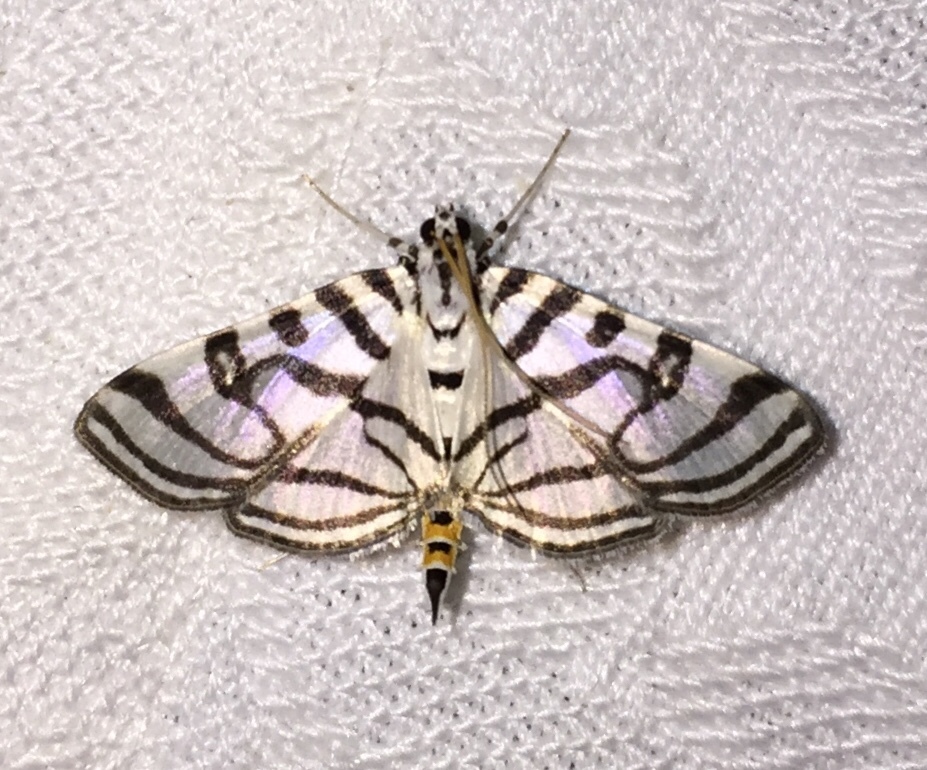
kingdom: Animalia
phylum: Arthropoda
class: Insecta
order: Lepidoptera
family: Crambidae
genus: Conchylodes
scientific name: Conchylodes ovulalis
